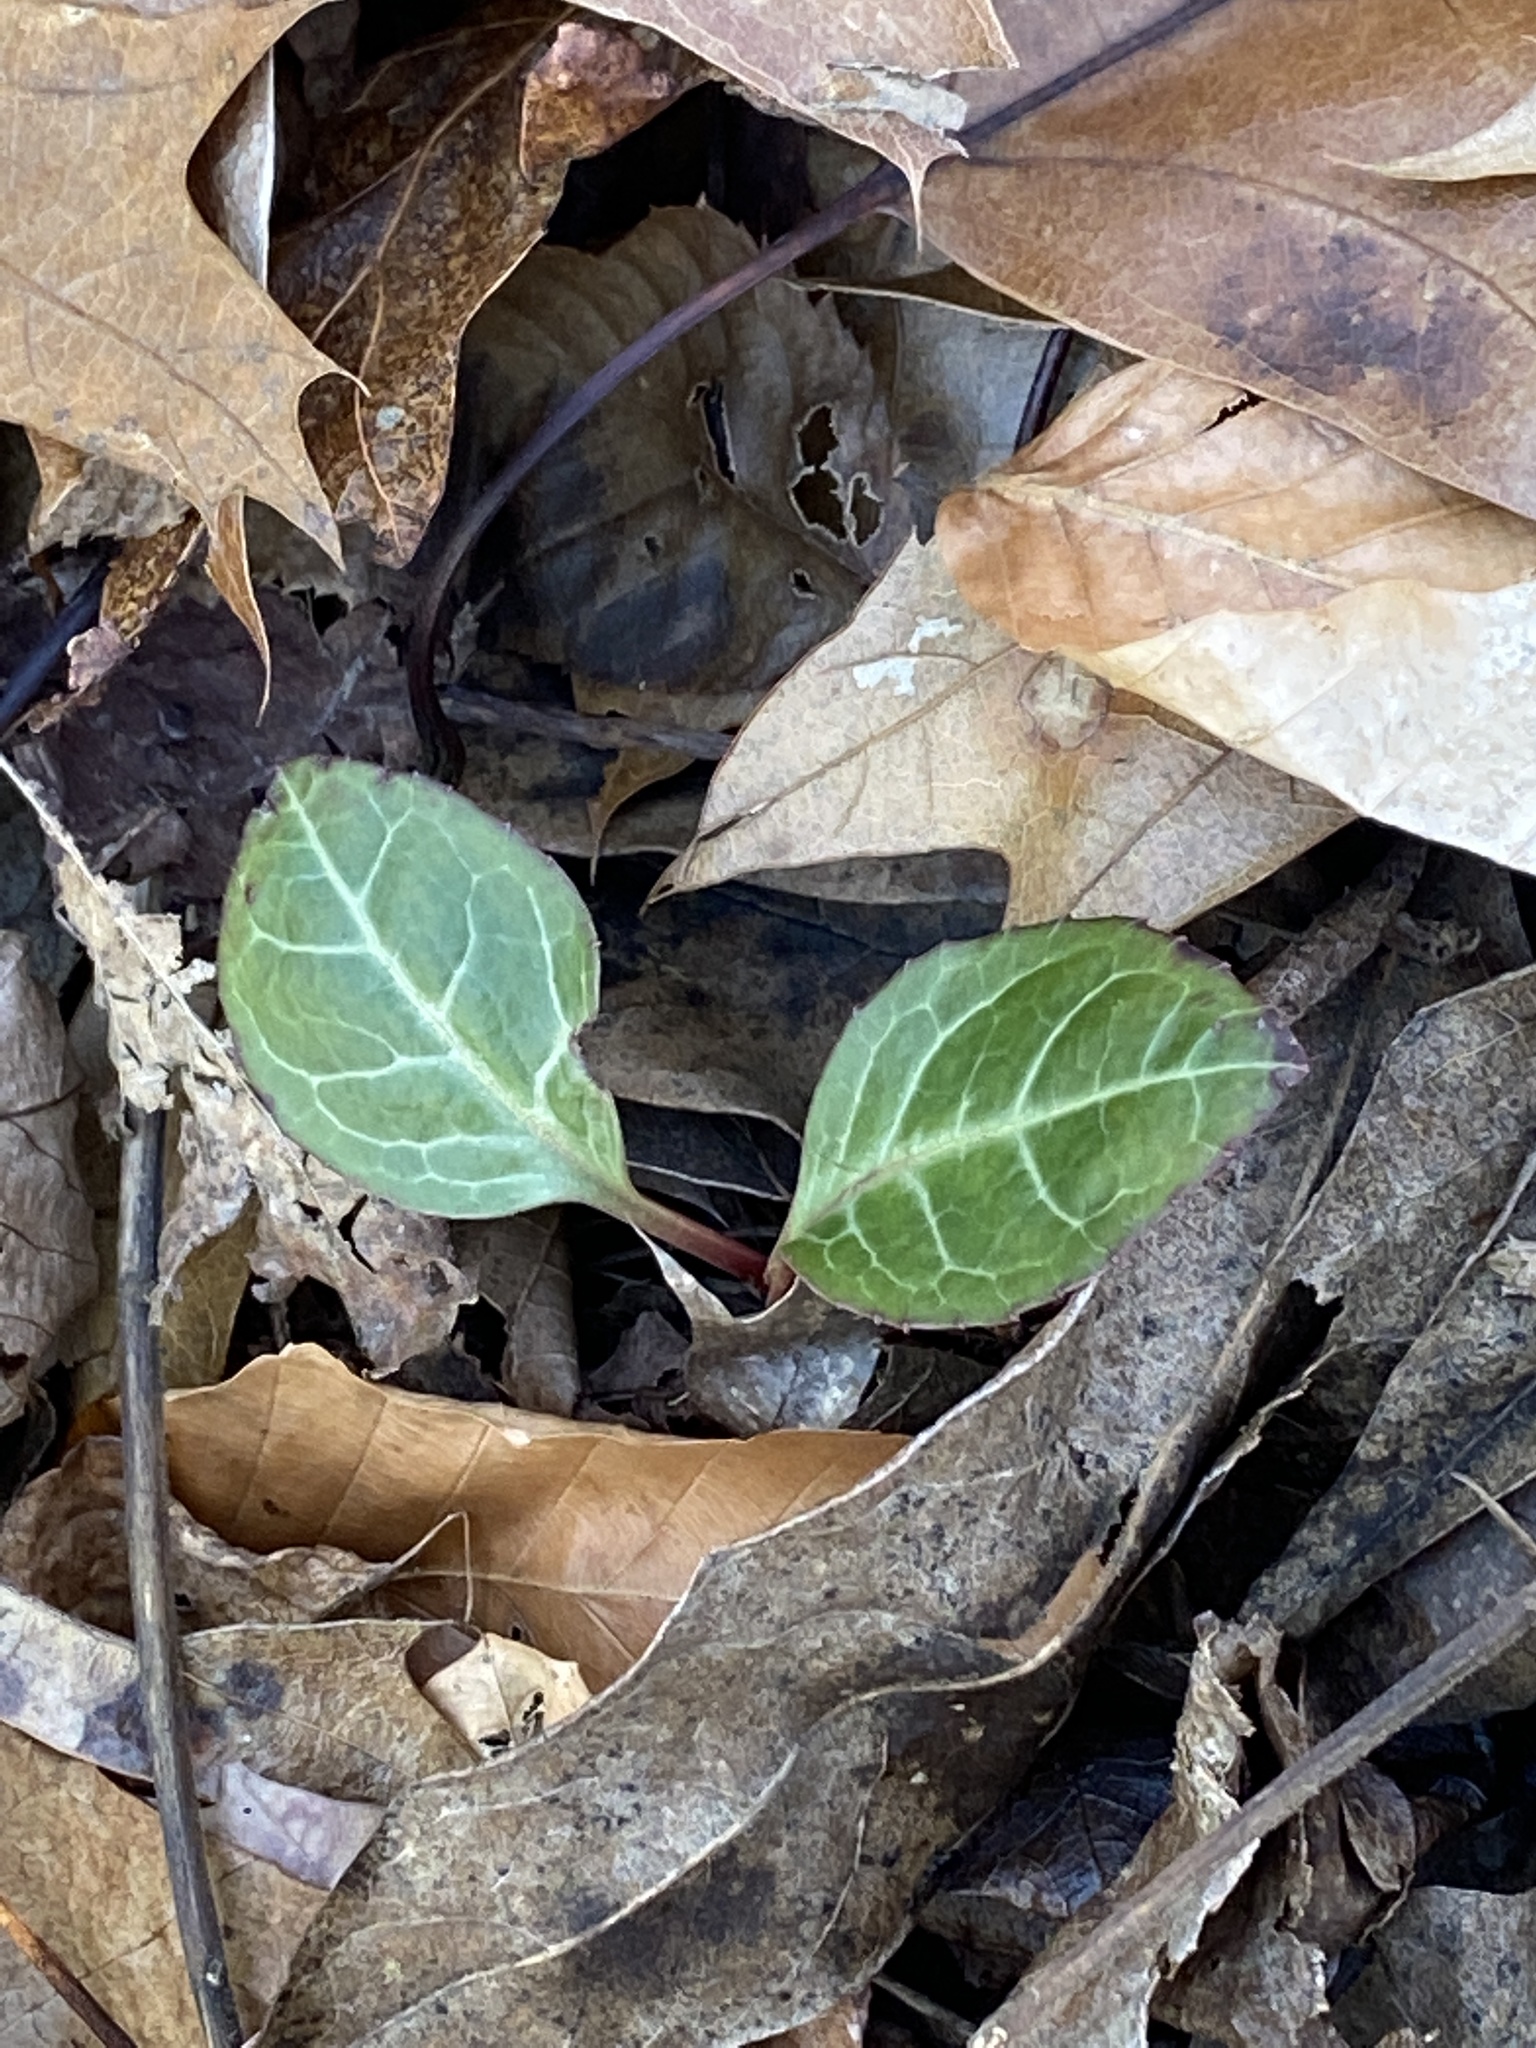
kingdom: Plantae
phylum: Tracheophyta
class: Magnoliopsida
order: Ericales
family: Ericaceae
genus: Pyrola
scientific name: Pyrola americana
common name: American wintergreen
